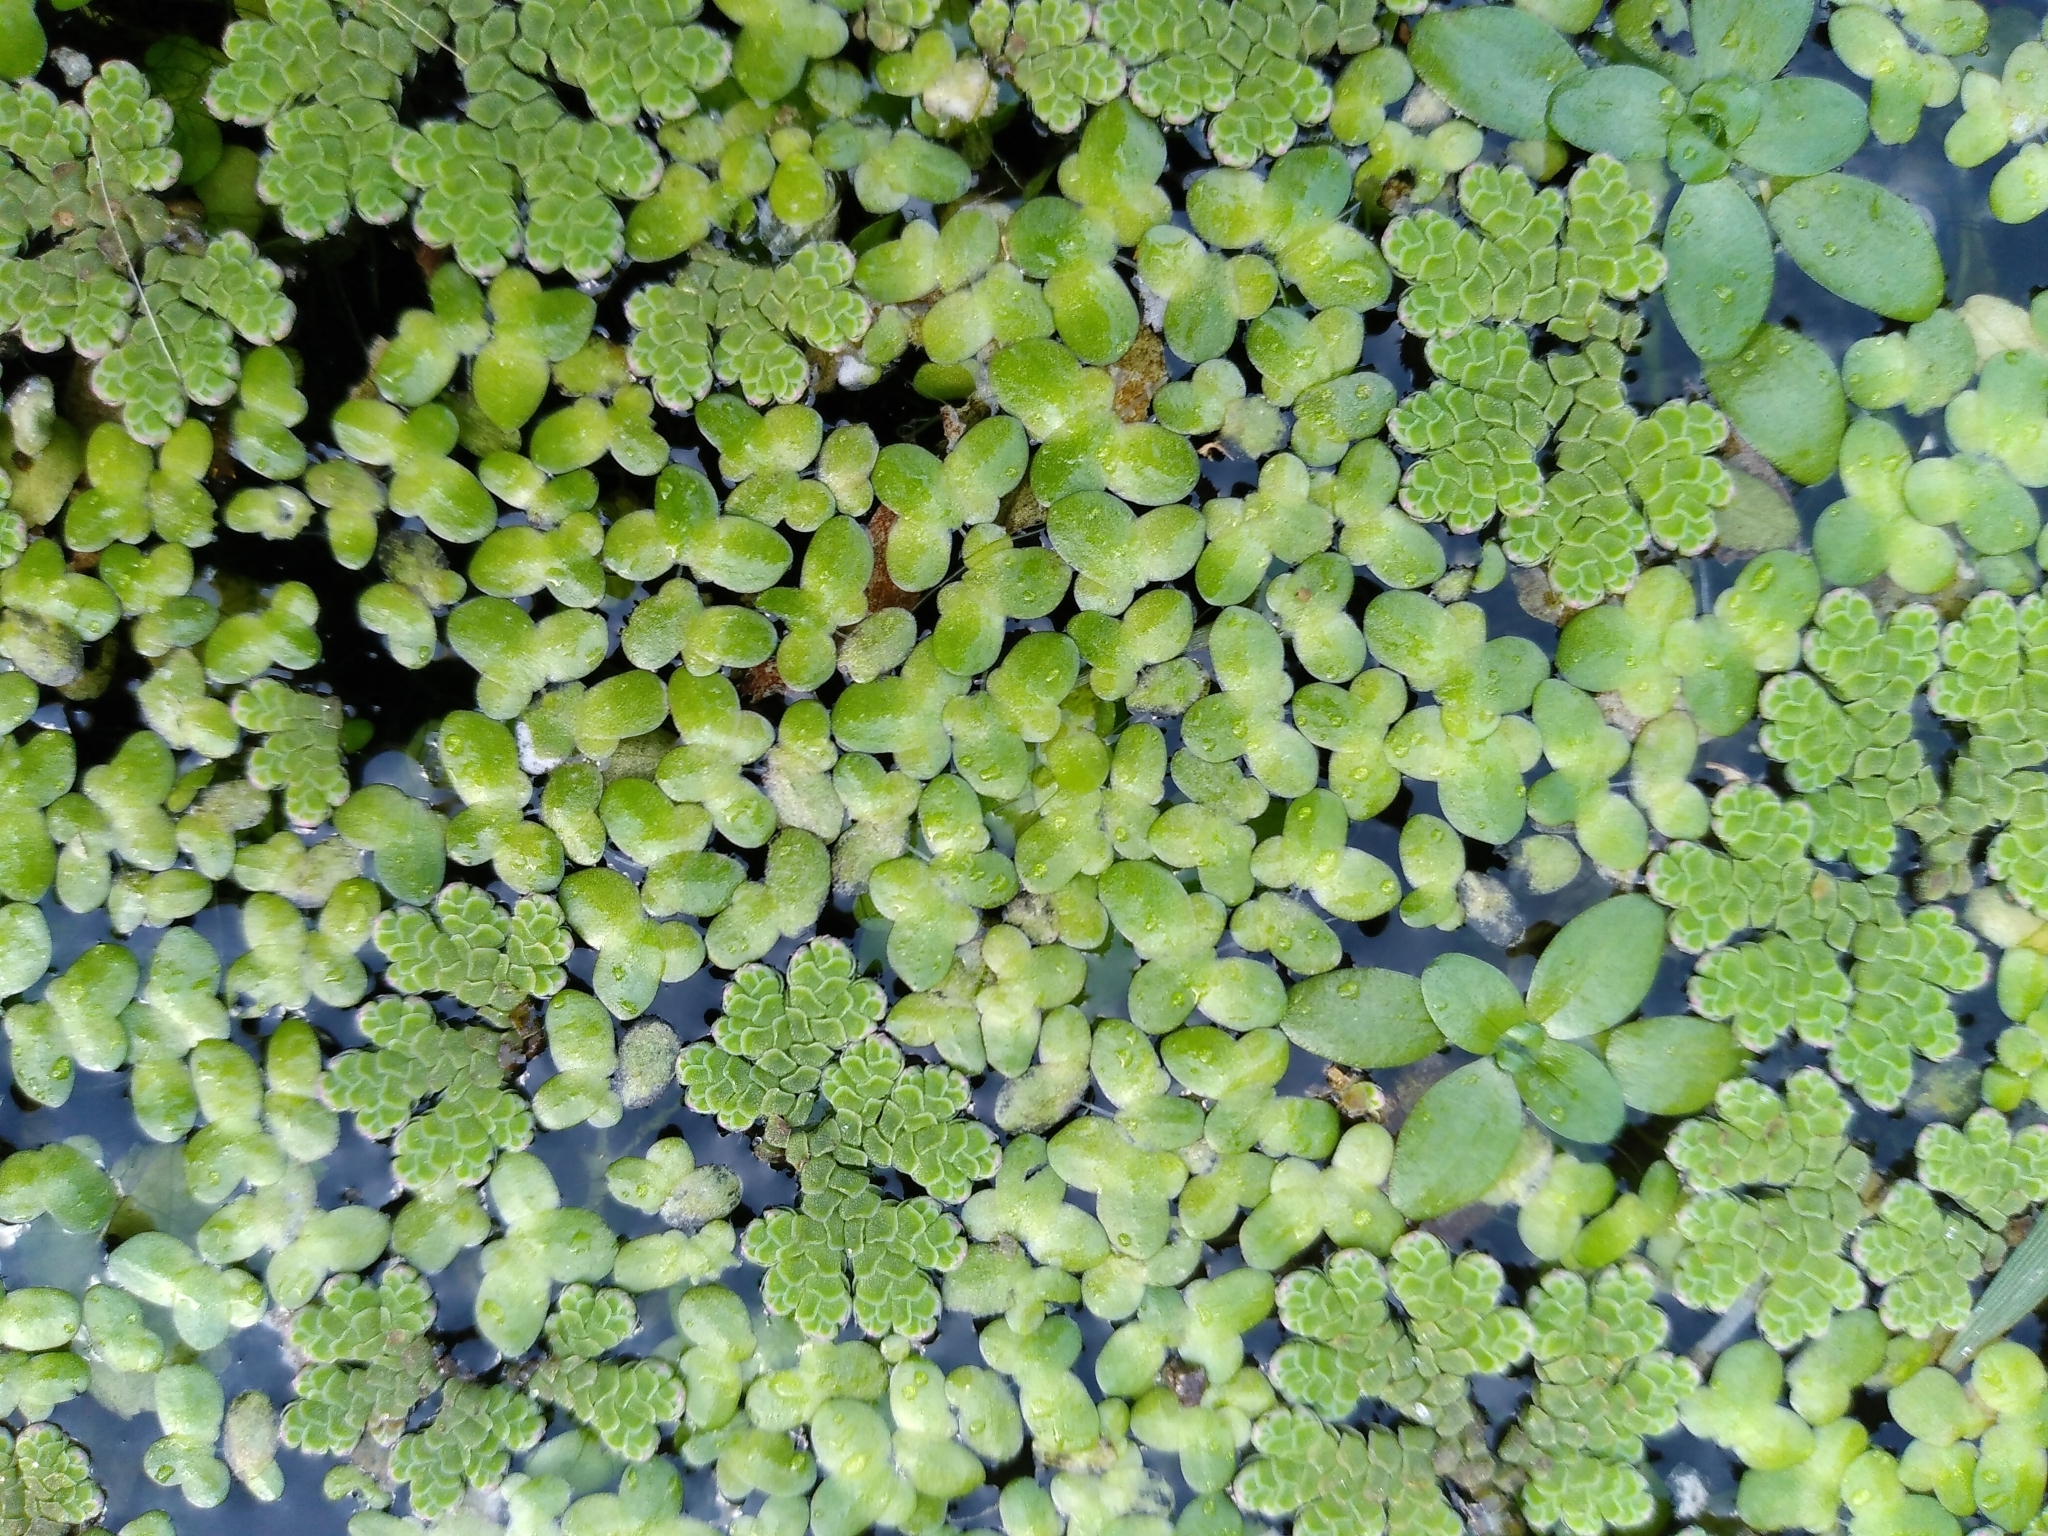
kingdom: Plantae
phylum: Tracheophyta
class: Liliopsida
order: Alismatales
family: Araceae
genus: Lemna
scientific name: Lemna
